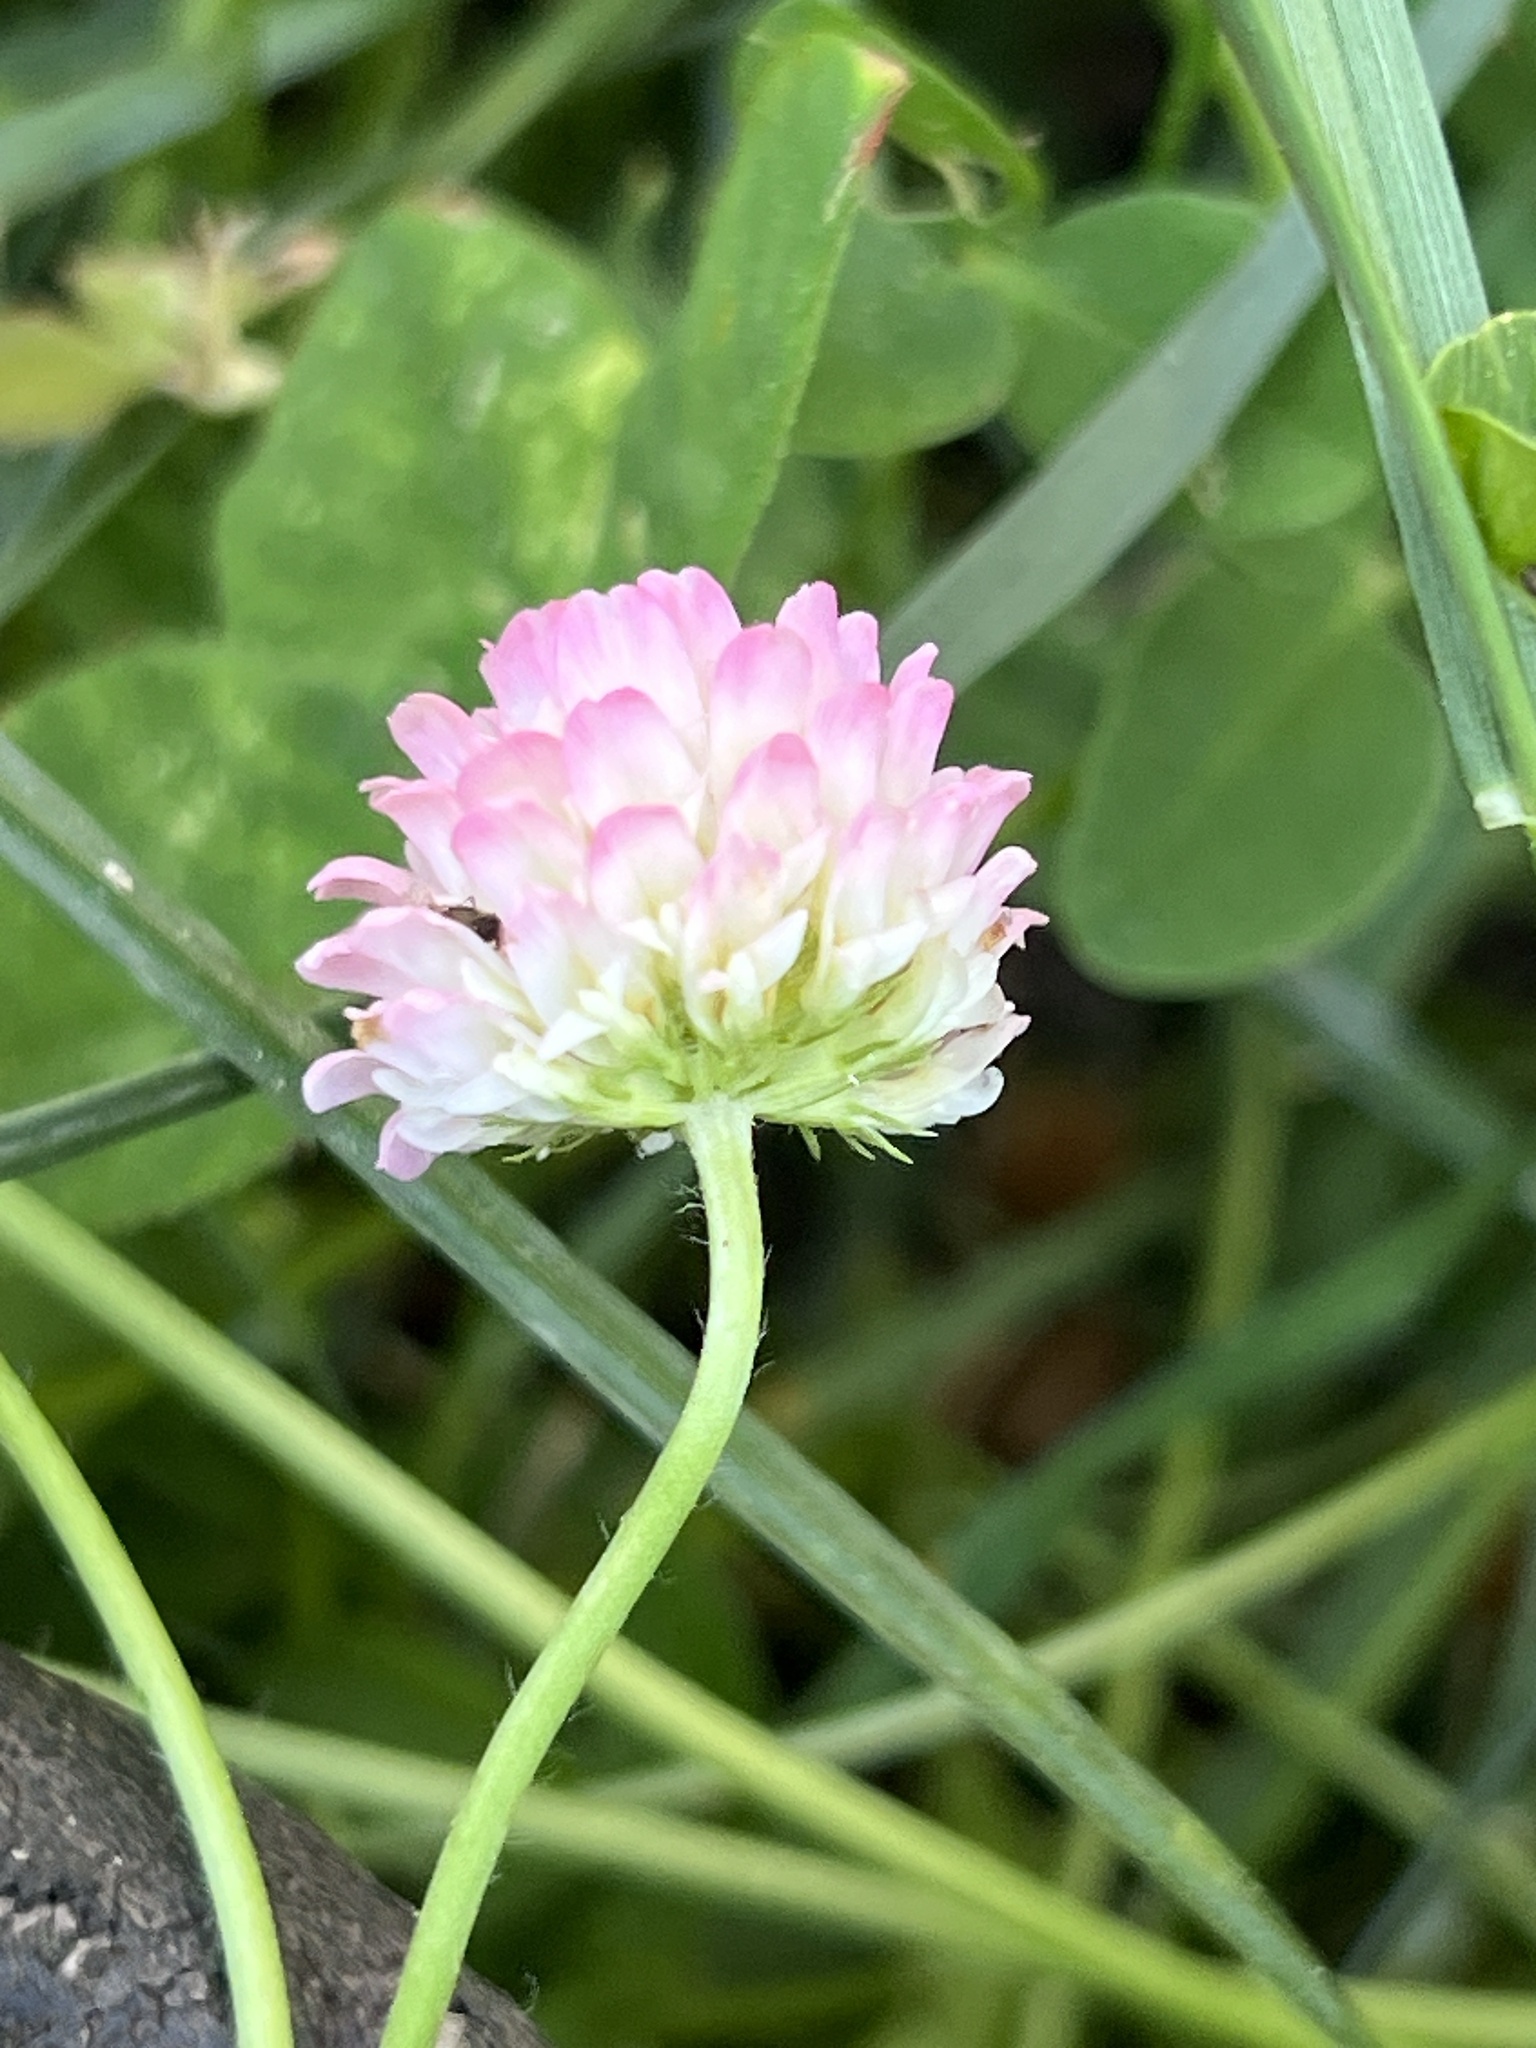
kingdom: Plantae
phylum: Tracheophyta
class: Magnoliopsida
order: Fabales
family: Fabaceae
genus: Trifolium
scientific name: Trifolium fragiferum
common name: Strawberry clover
